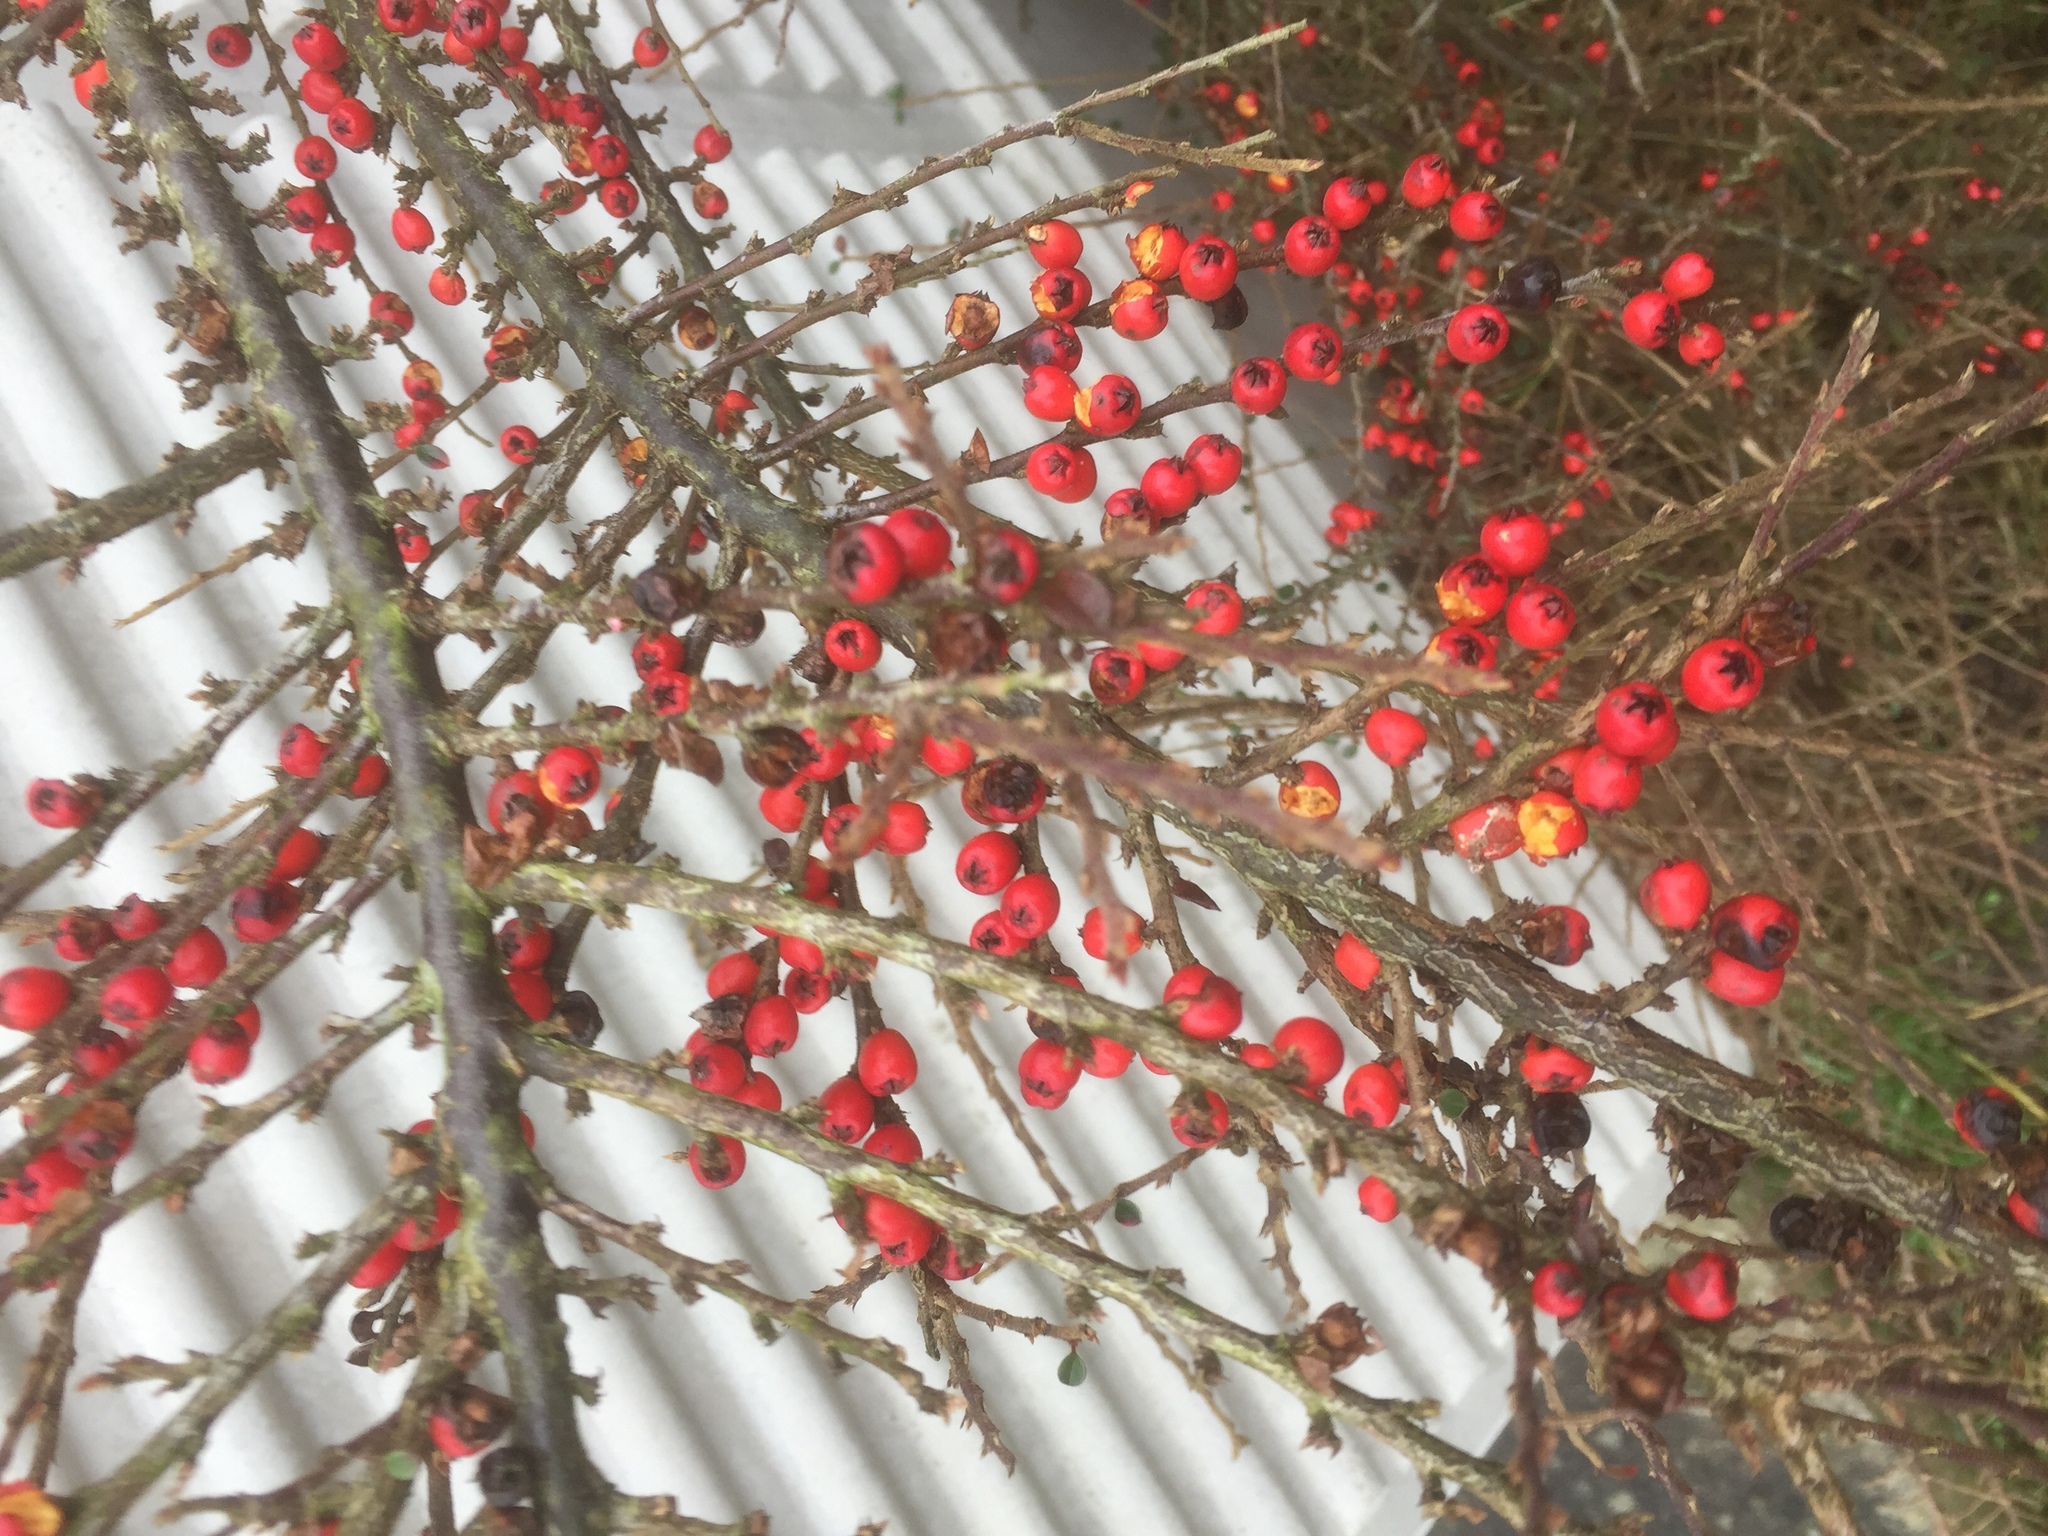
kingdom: Plantae
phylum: Tracheophyta
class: Magnoliopsida
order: Rosales
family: Rosaceae
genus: Cotoneaster
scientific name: Cotoneaster horizontalis
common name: Wall cotoneaster
